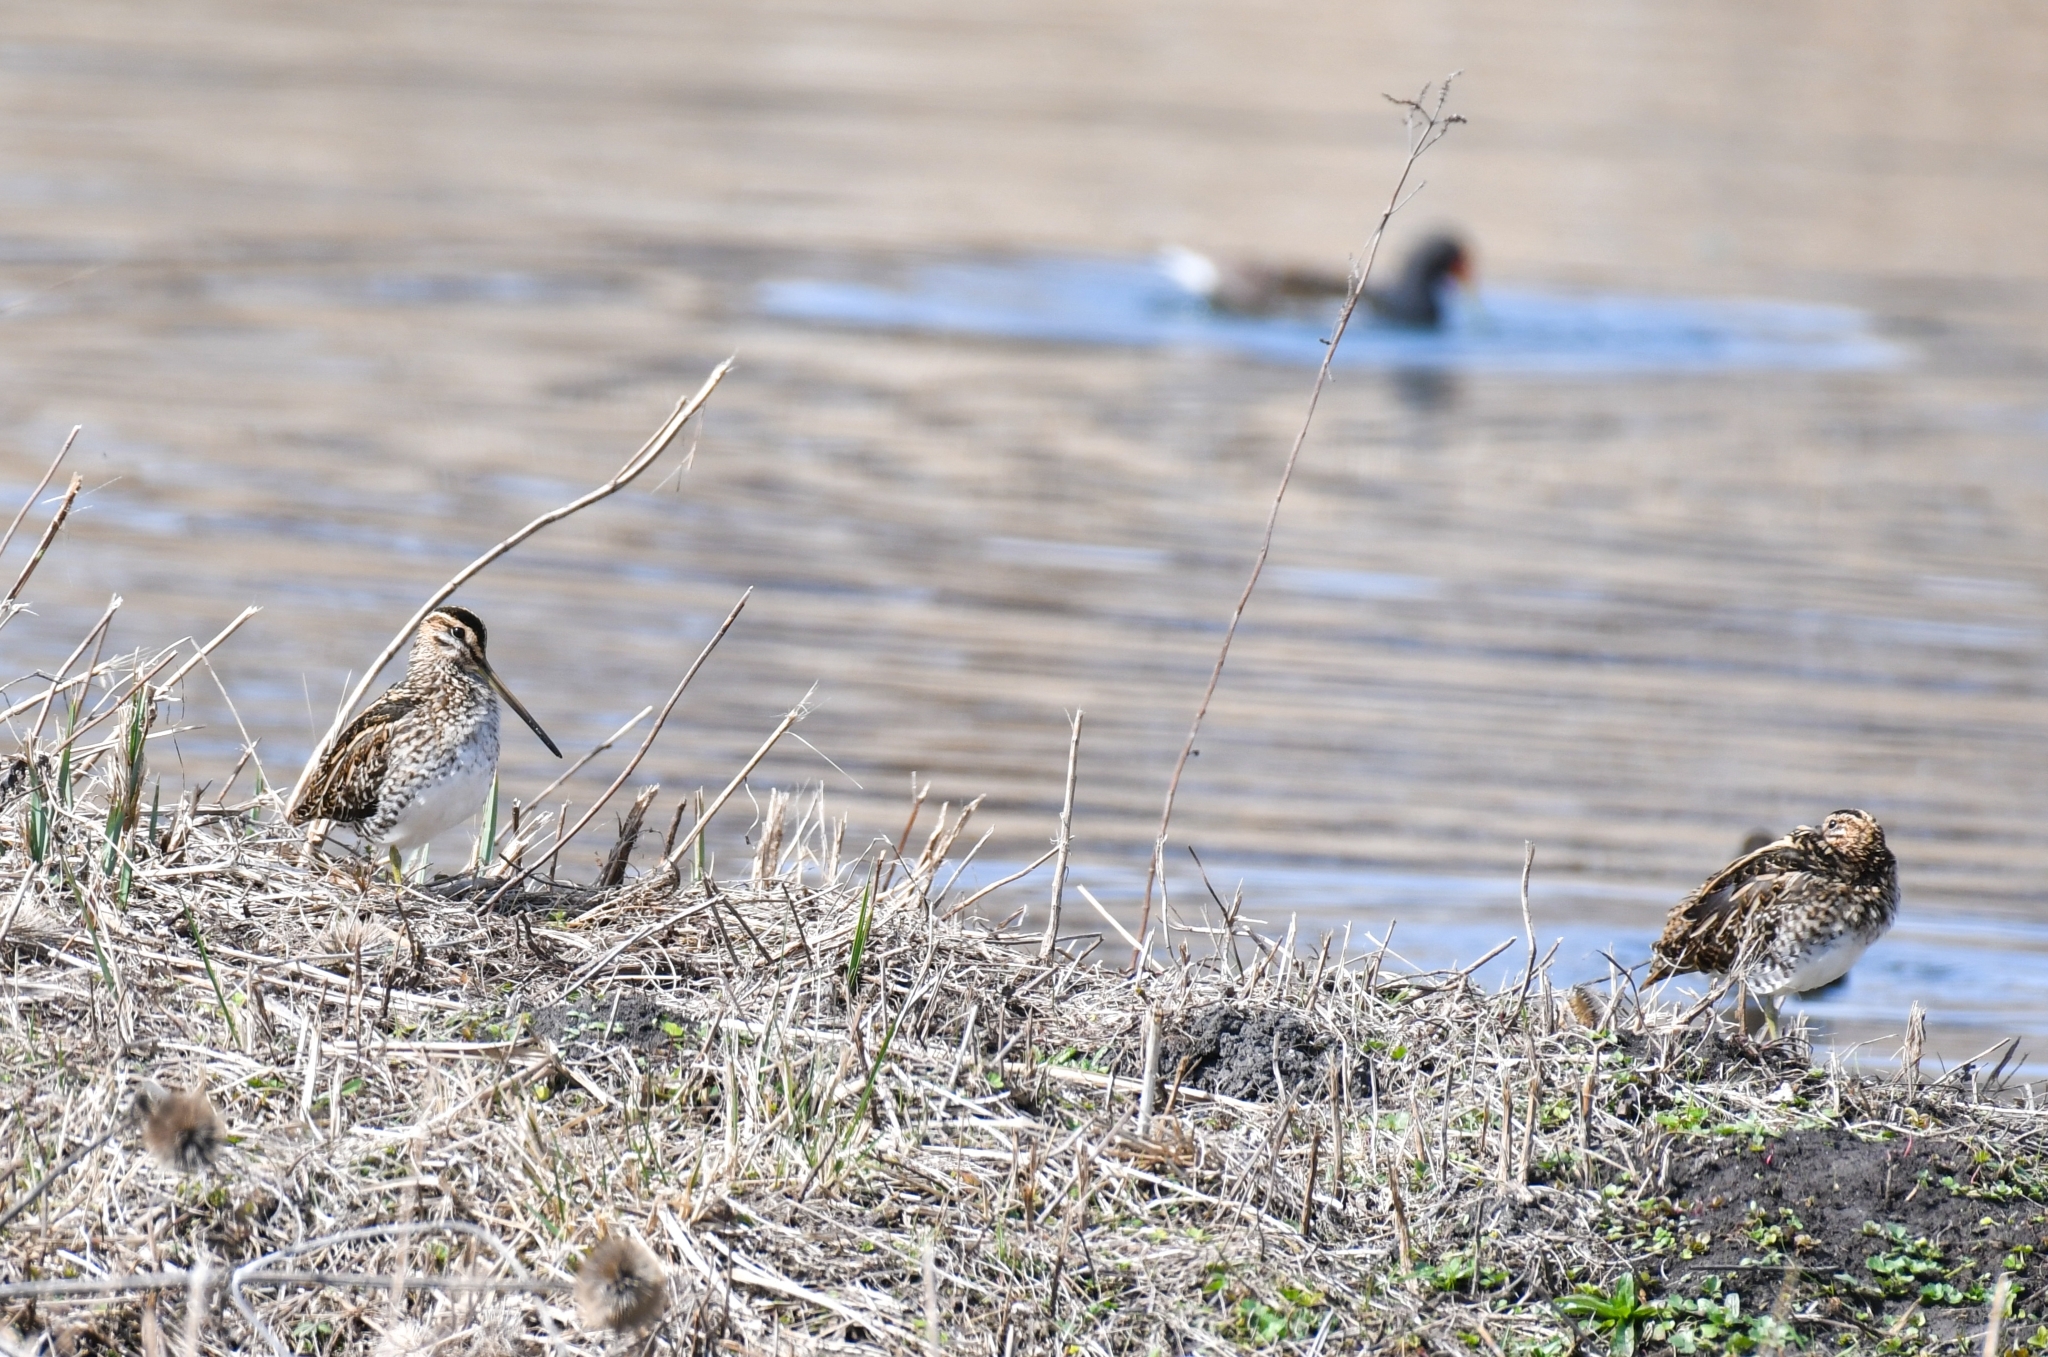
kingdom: Animalia
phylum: Chordata
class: Aves
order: Charadriiformes
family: Scolopacidae
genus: Gallinago
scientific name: Gallinago gallinago
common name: Common snipe
